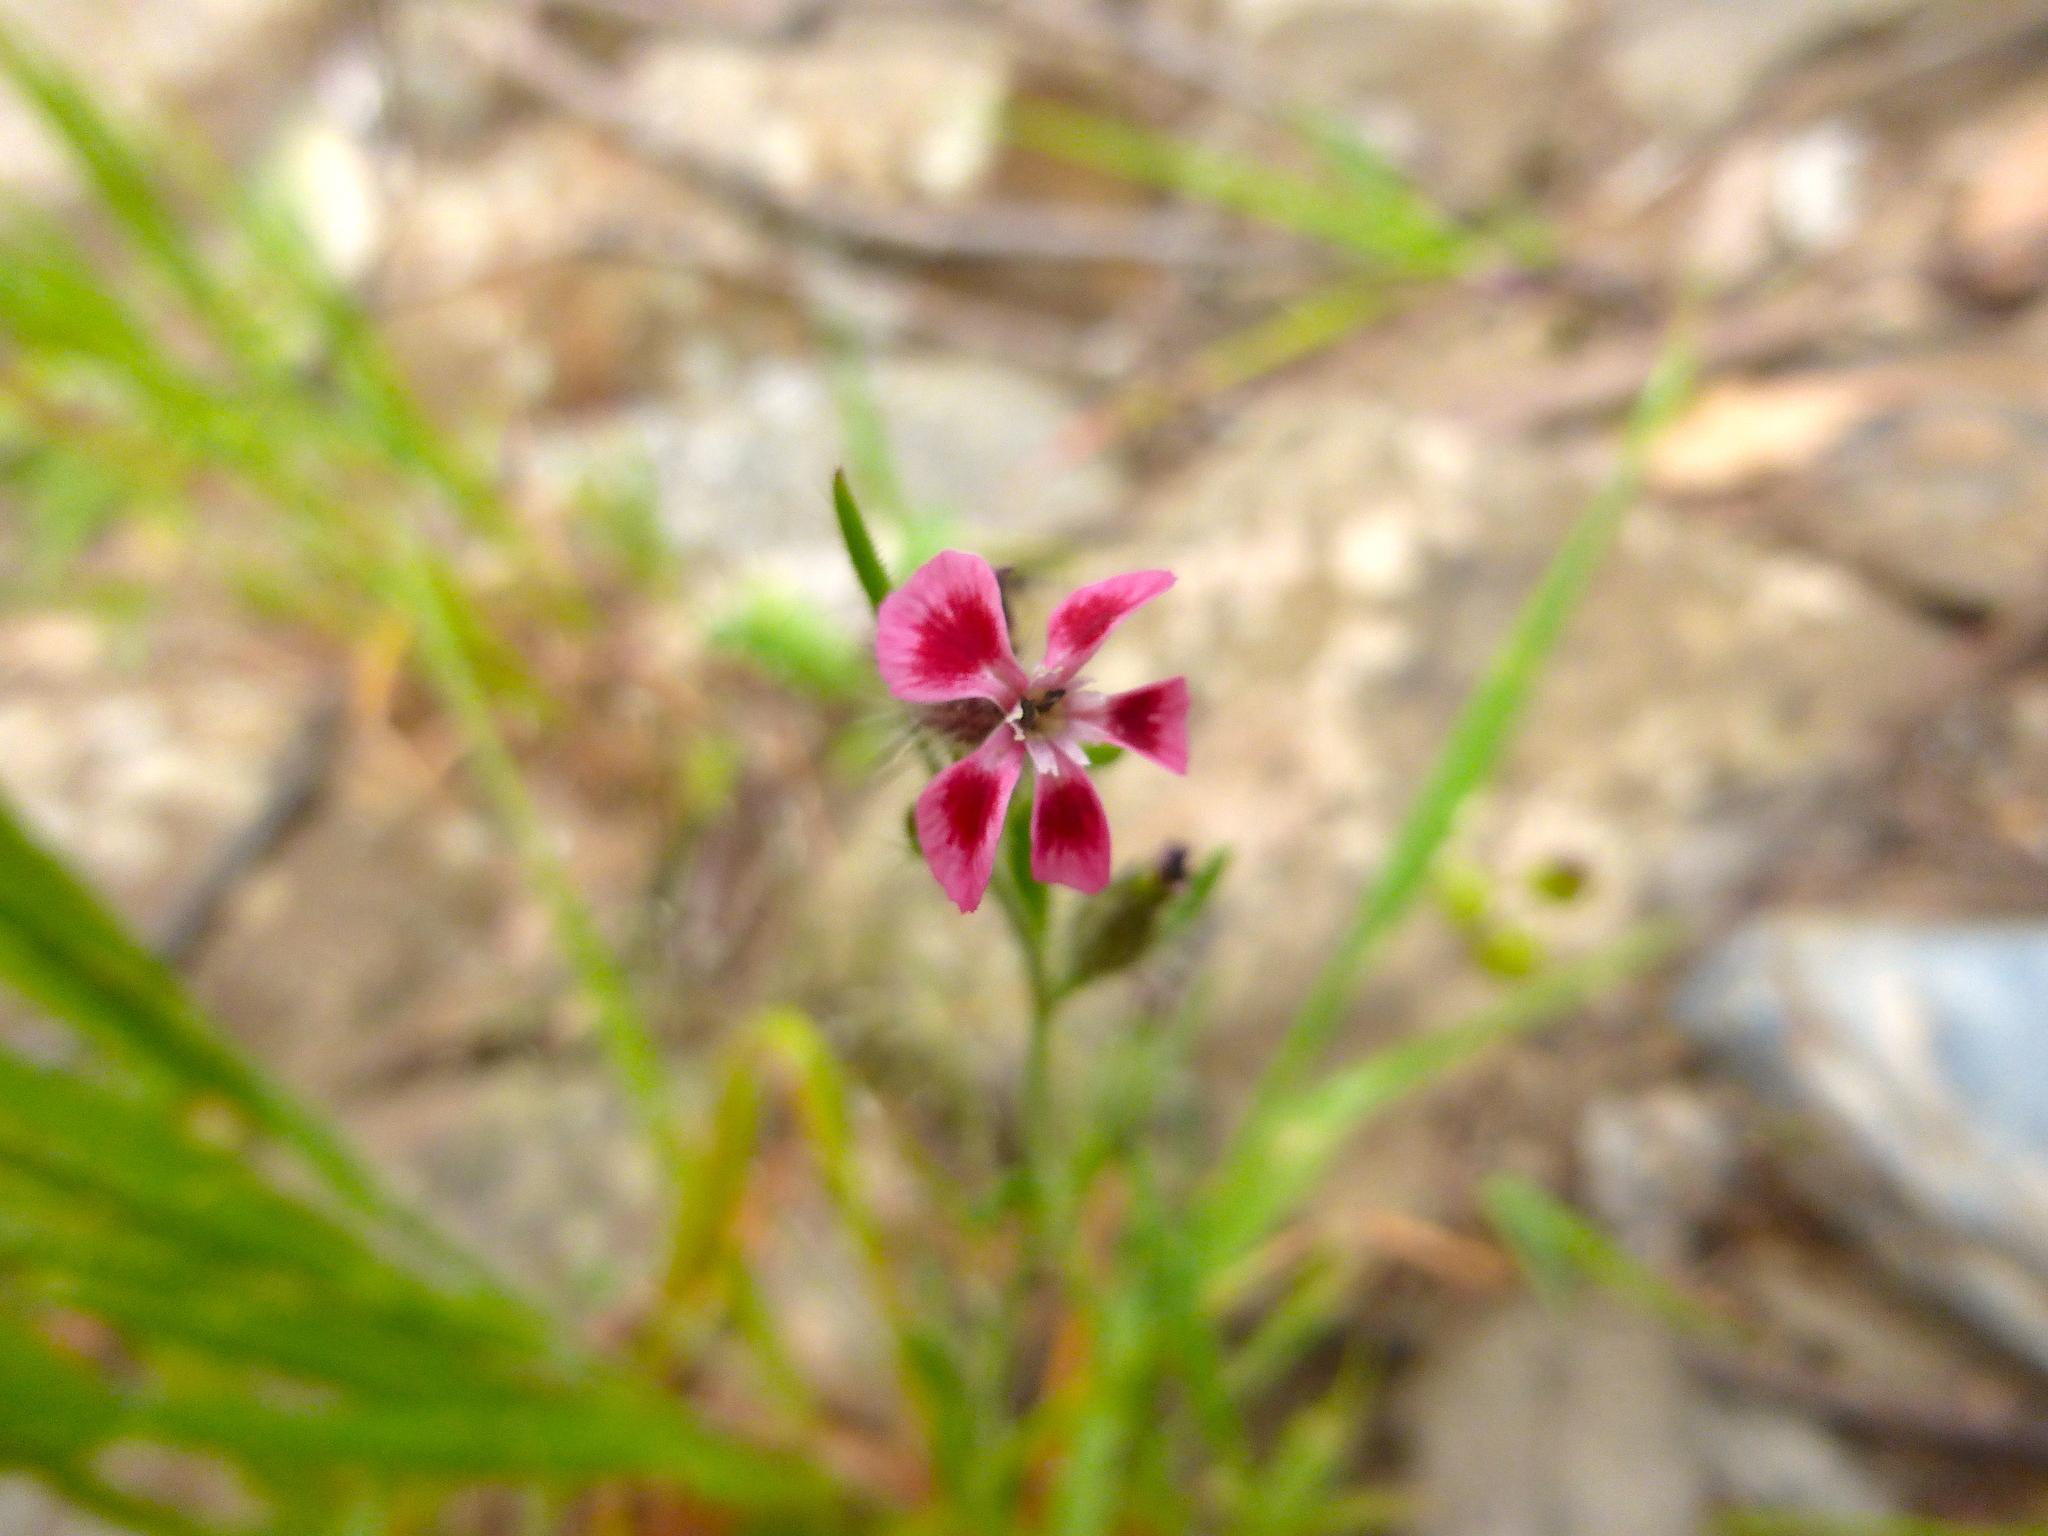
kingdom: Plantae
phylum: Tracheophyta
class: Magnoliopsida
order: Caryophyllales
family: Caryophyllaceae
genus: Silene
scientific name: Silene gallica
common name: Small-flowered catchfly
